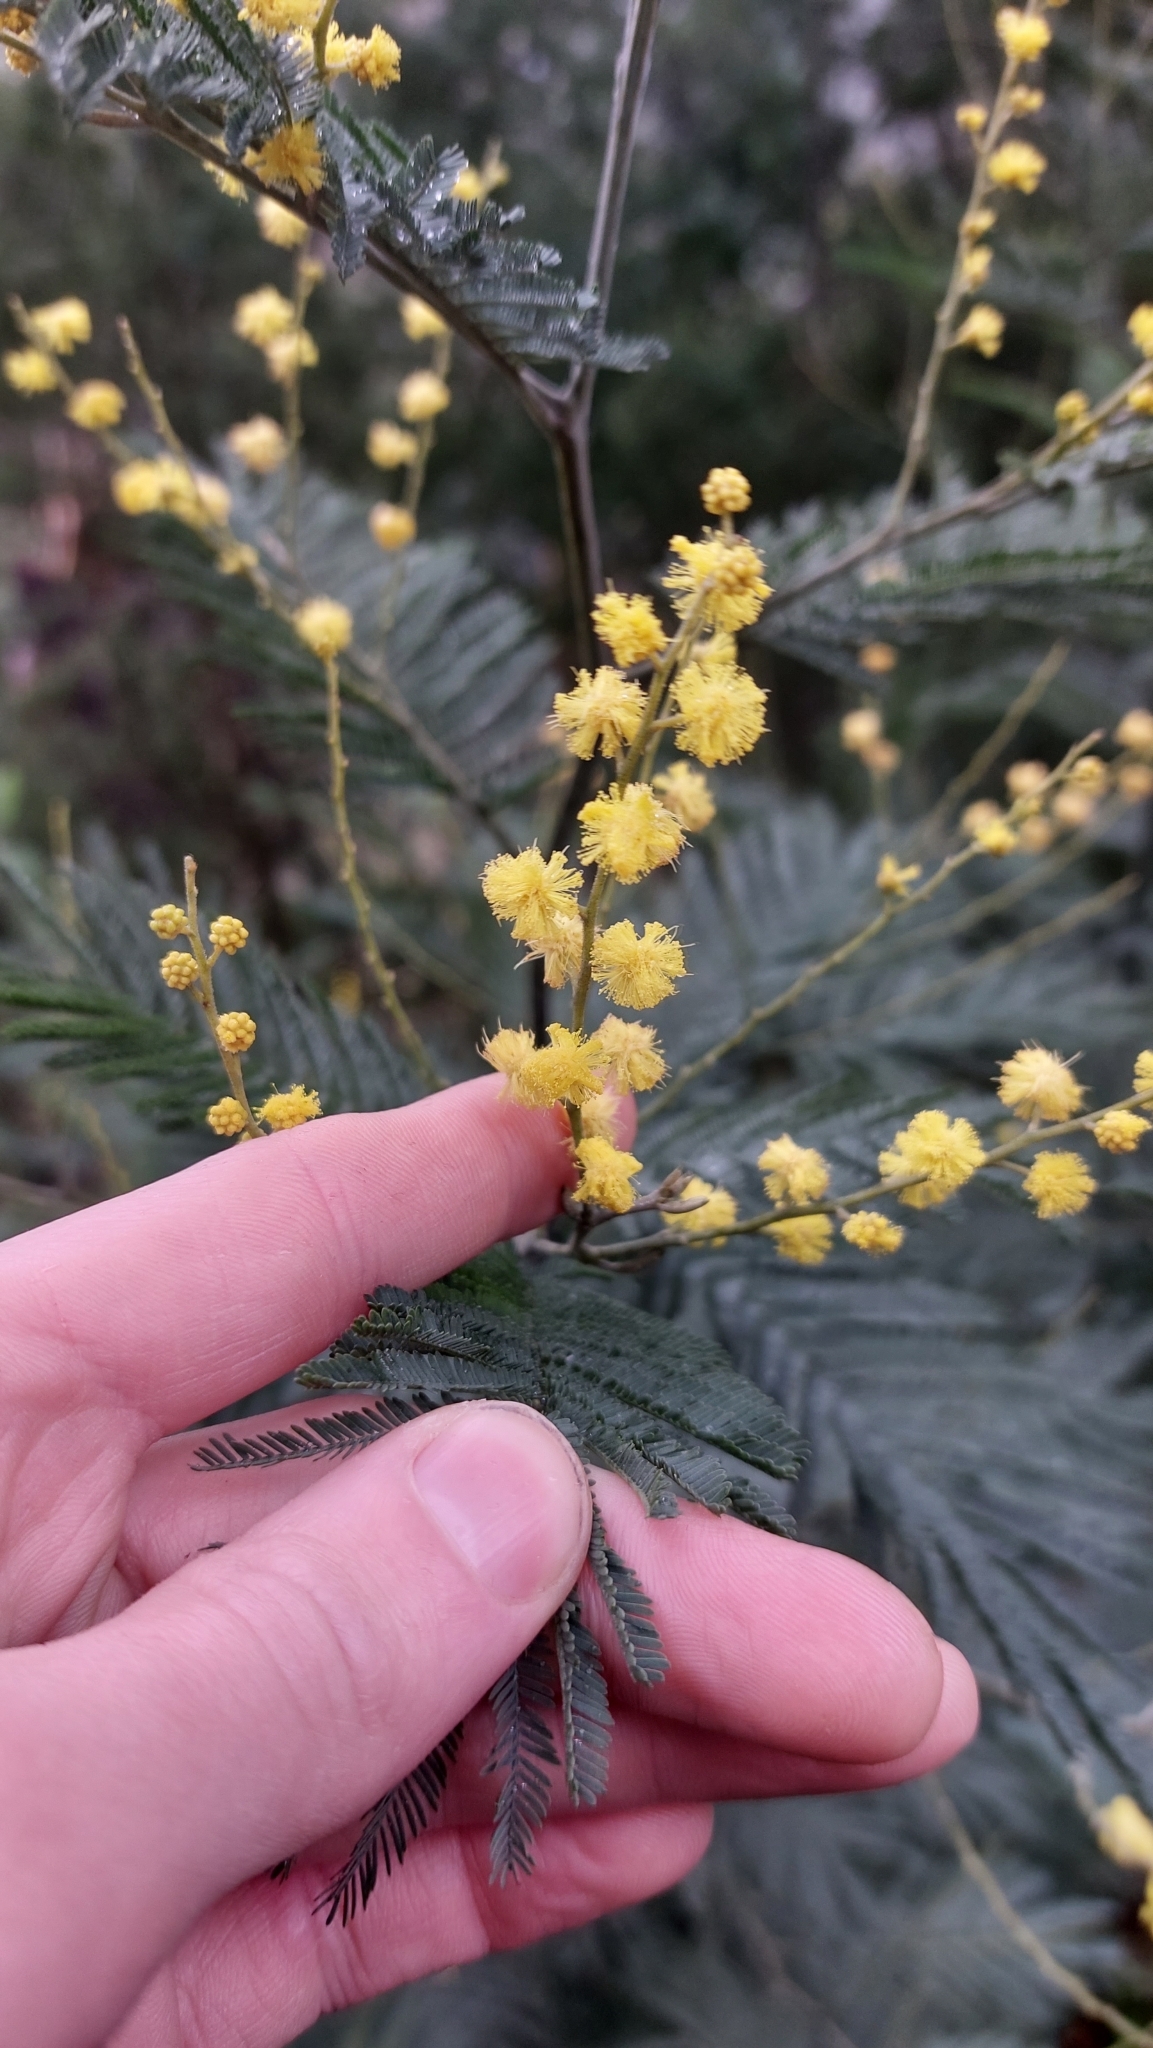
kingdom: Plantae
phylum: Tracheophyta
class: Magnoliopsida
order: Fabales
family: Fabaceae
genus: Acacia
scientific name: Acacia mearnsii
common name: Black wattle
